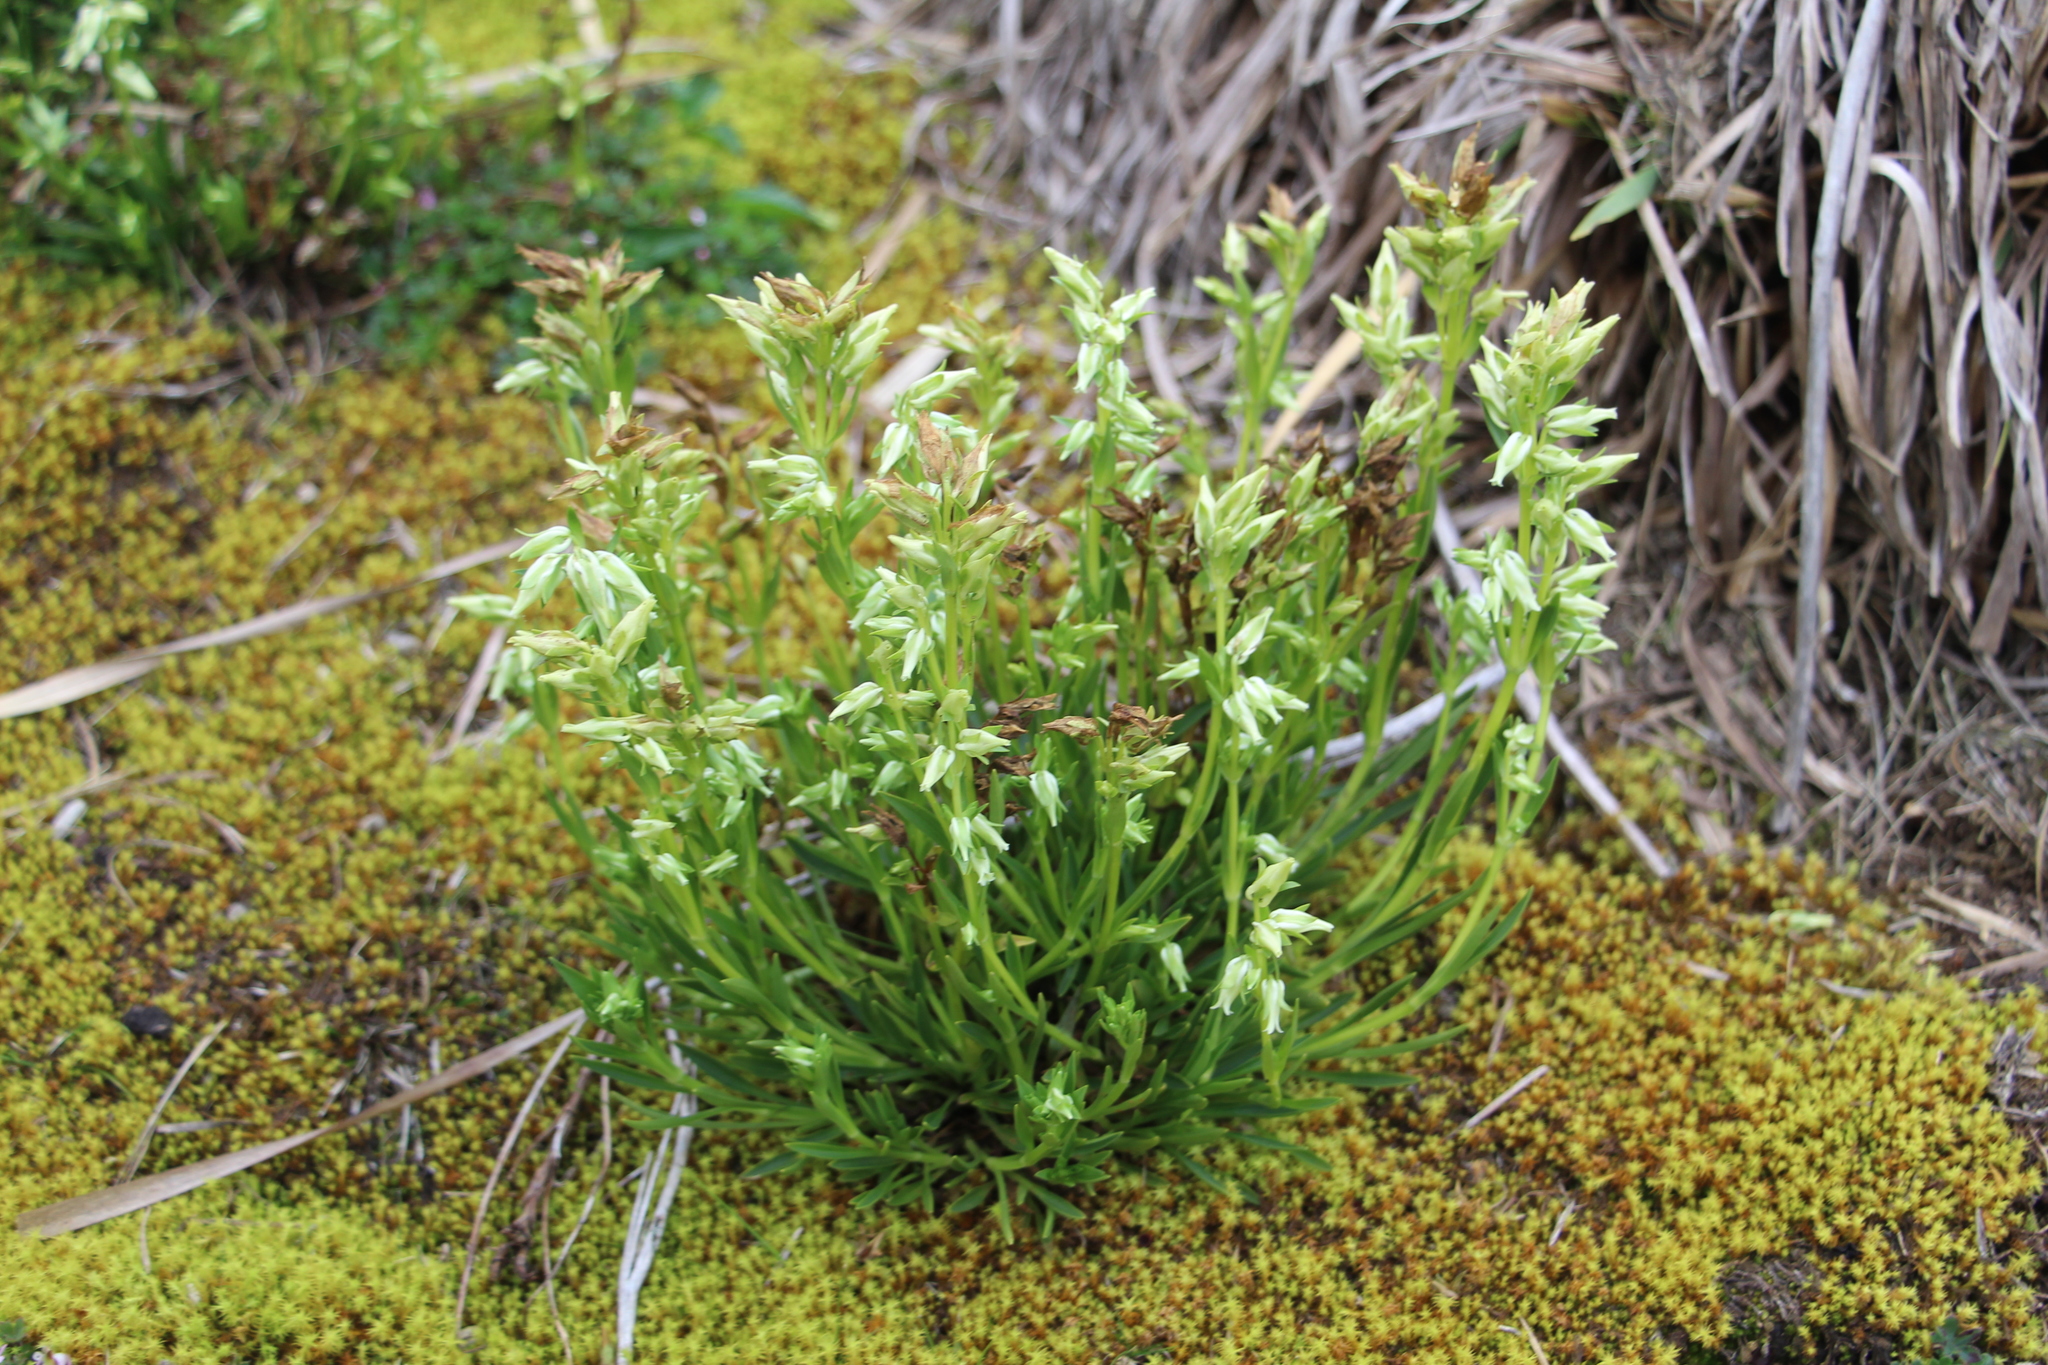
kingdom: Plantae
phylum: Tracheophyta
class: Magnoliopsida
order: Gentianales
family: Gentianaceae
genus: Halenia
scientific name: Halenia adpressa
